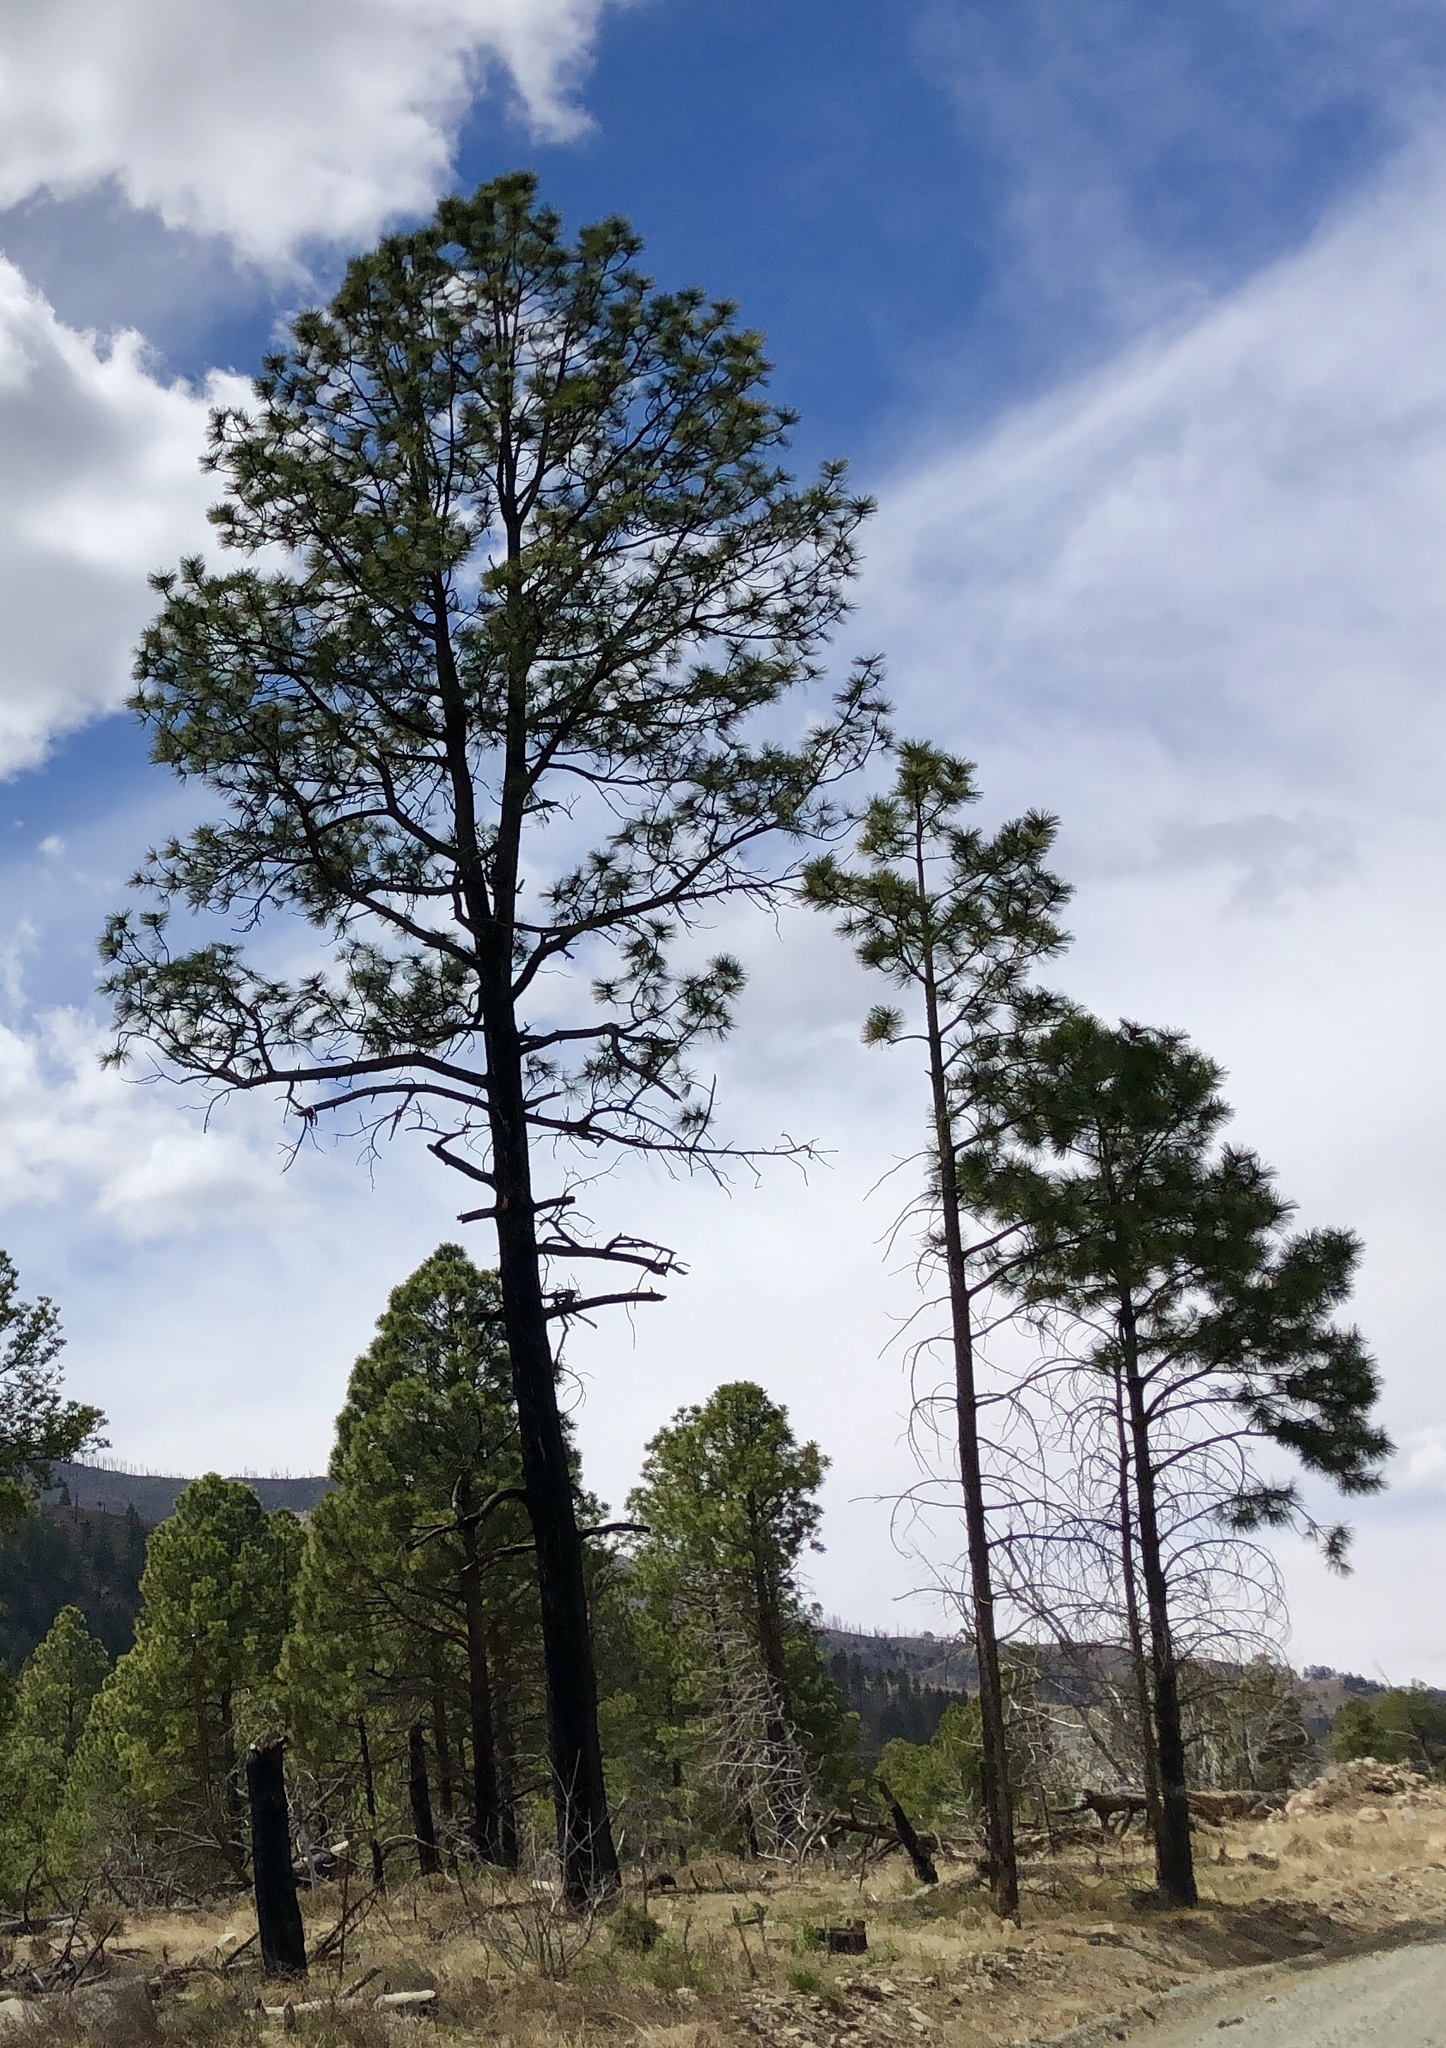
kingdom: Plantae
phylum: Tracheophyta
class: Pinopsida
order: Pinales
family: Pinaceae
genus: Pinus
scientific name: Pinus ponderosa
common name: Western yellow-pine
